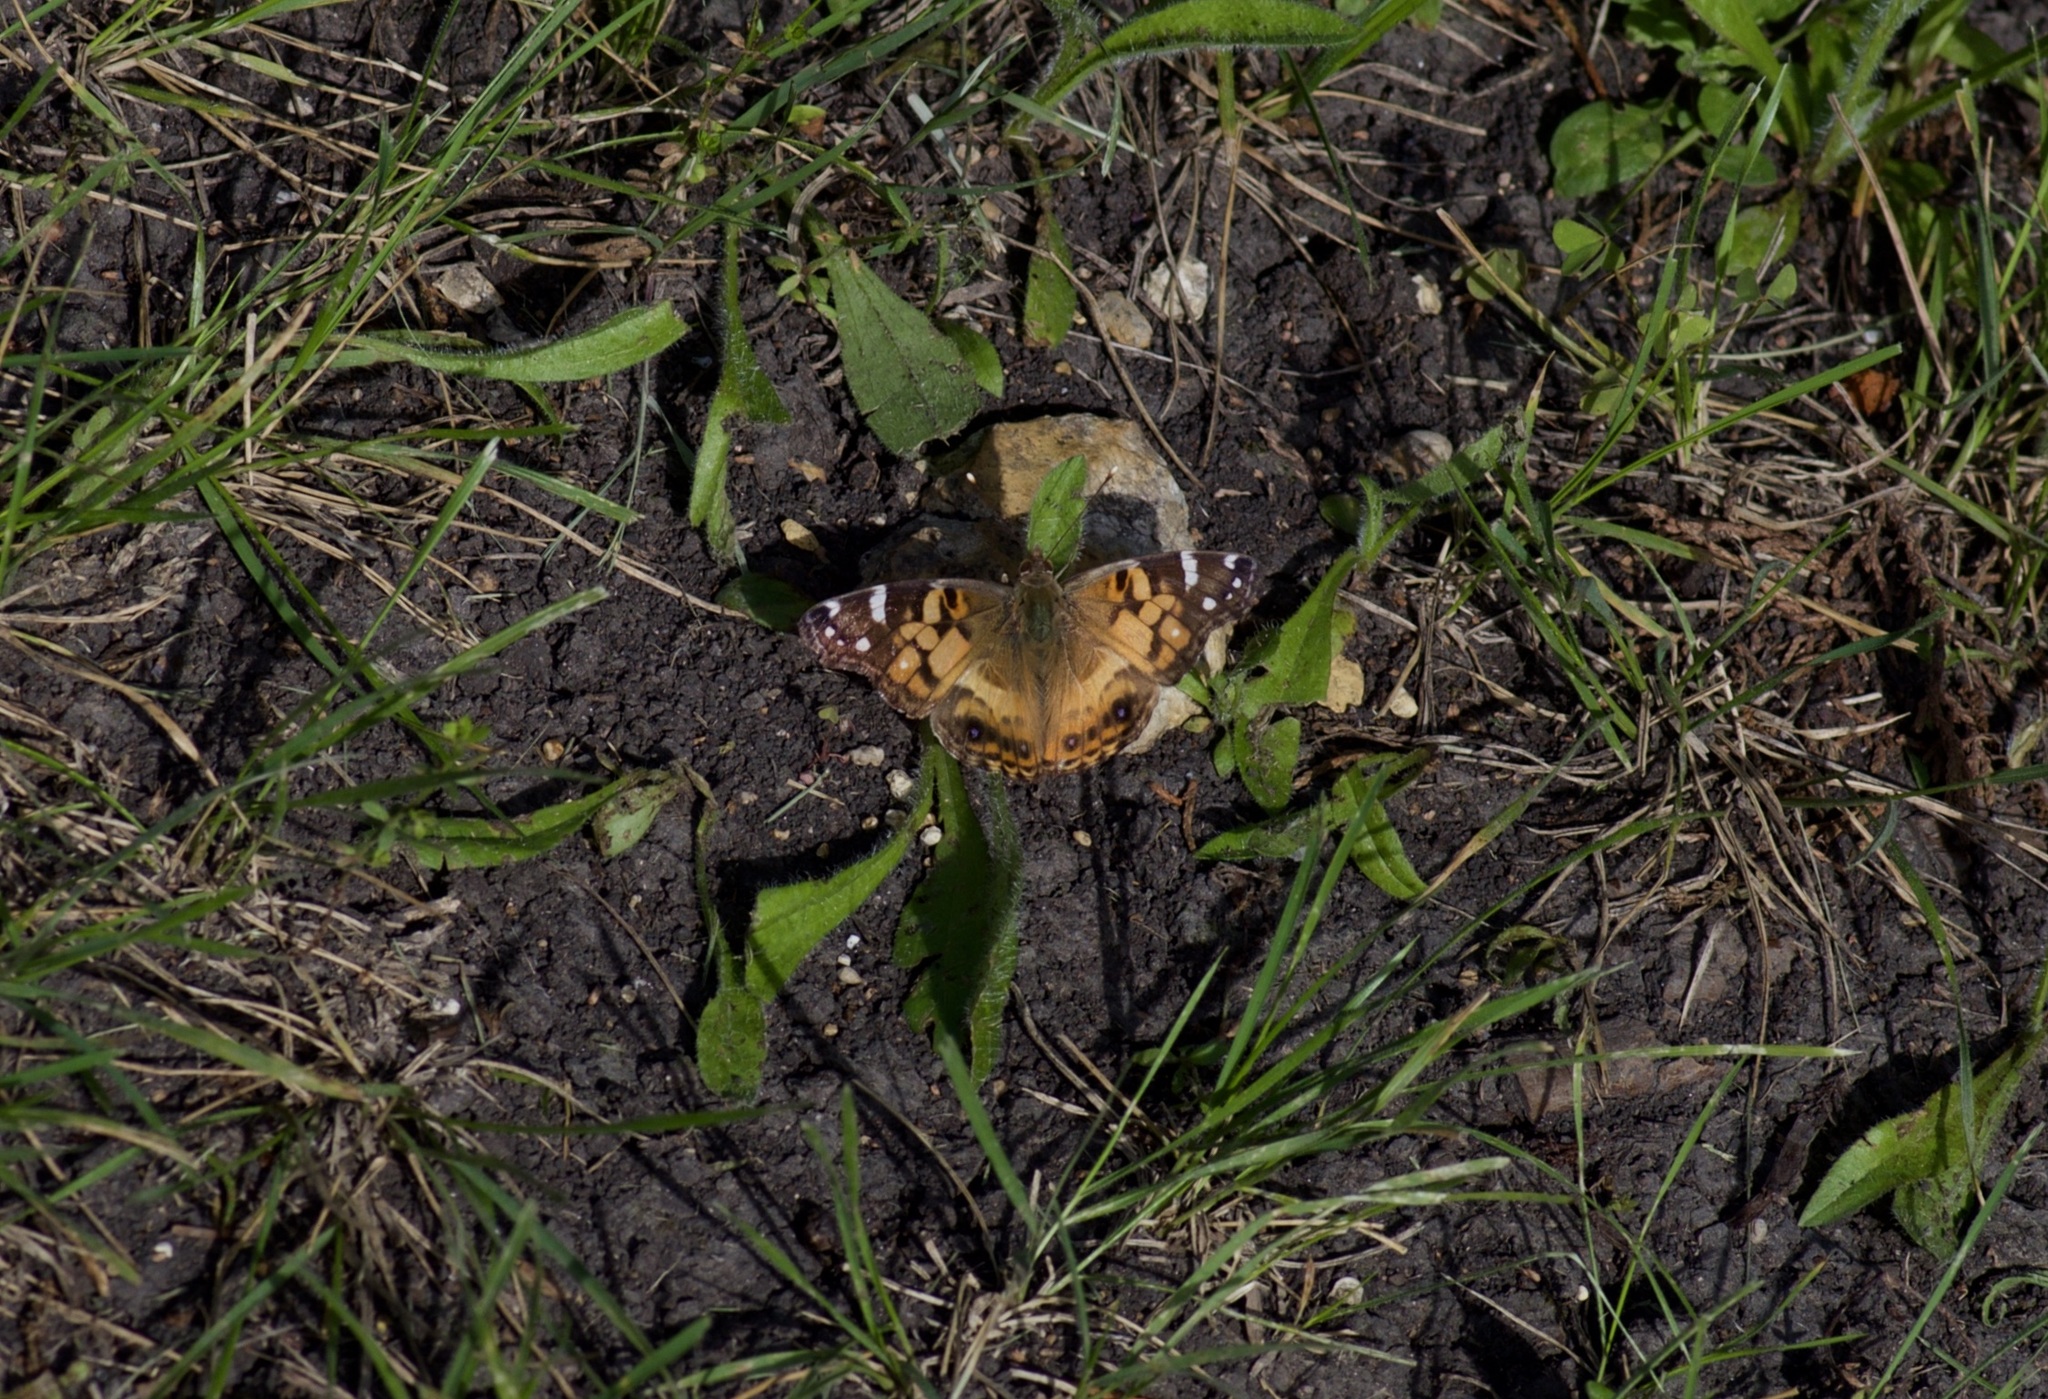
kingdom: Animalia
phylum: Arthropoda
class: Insecta
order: Lepidoptera
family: Nymphalidae
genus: Vanessa
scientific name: Vanessa virginiensis
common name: American lady
